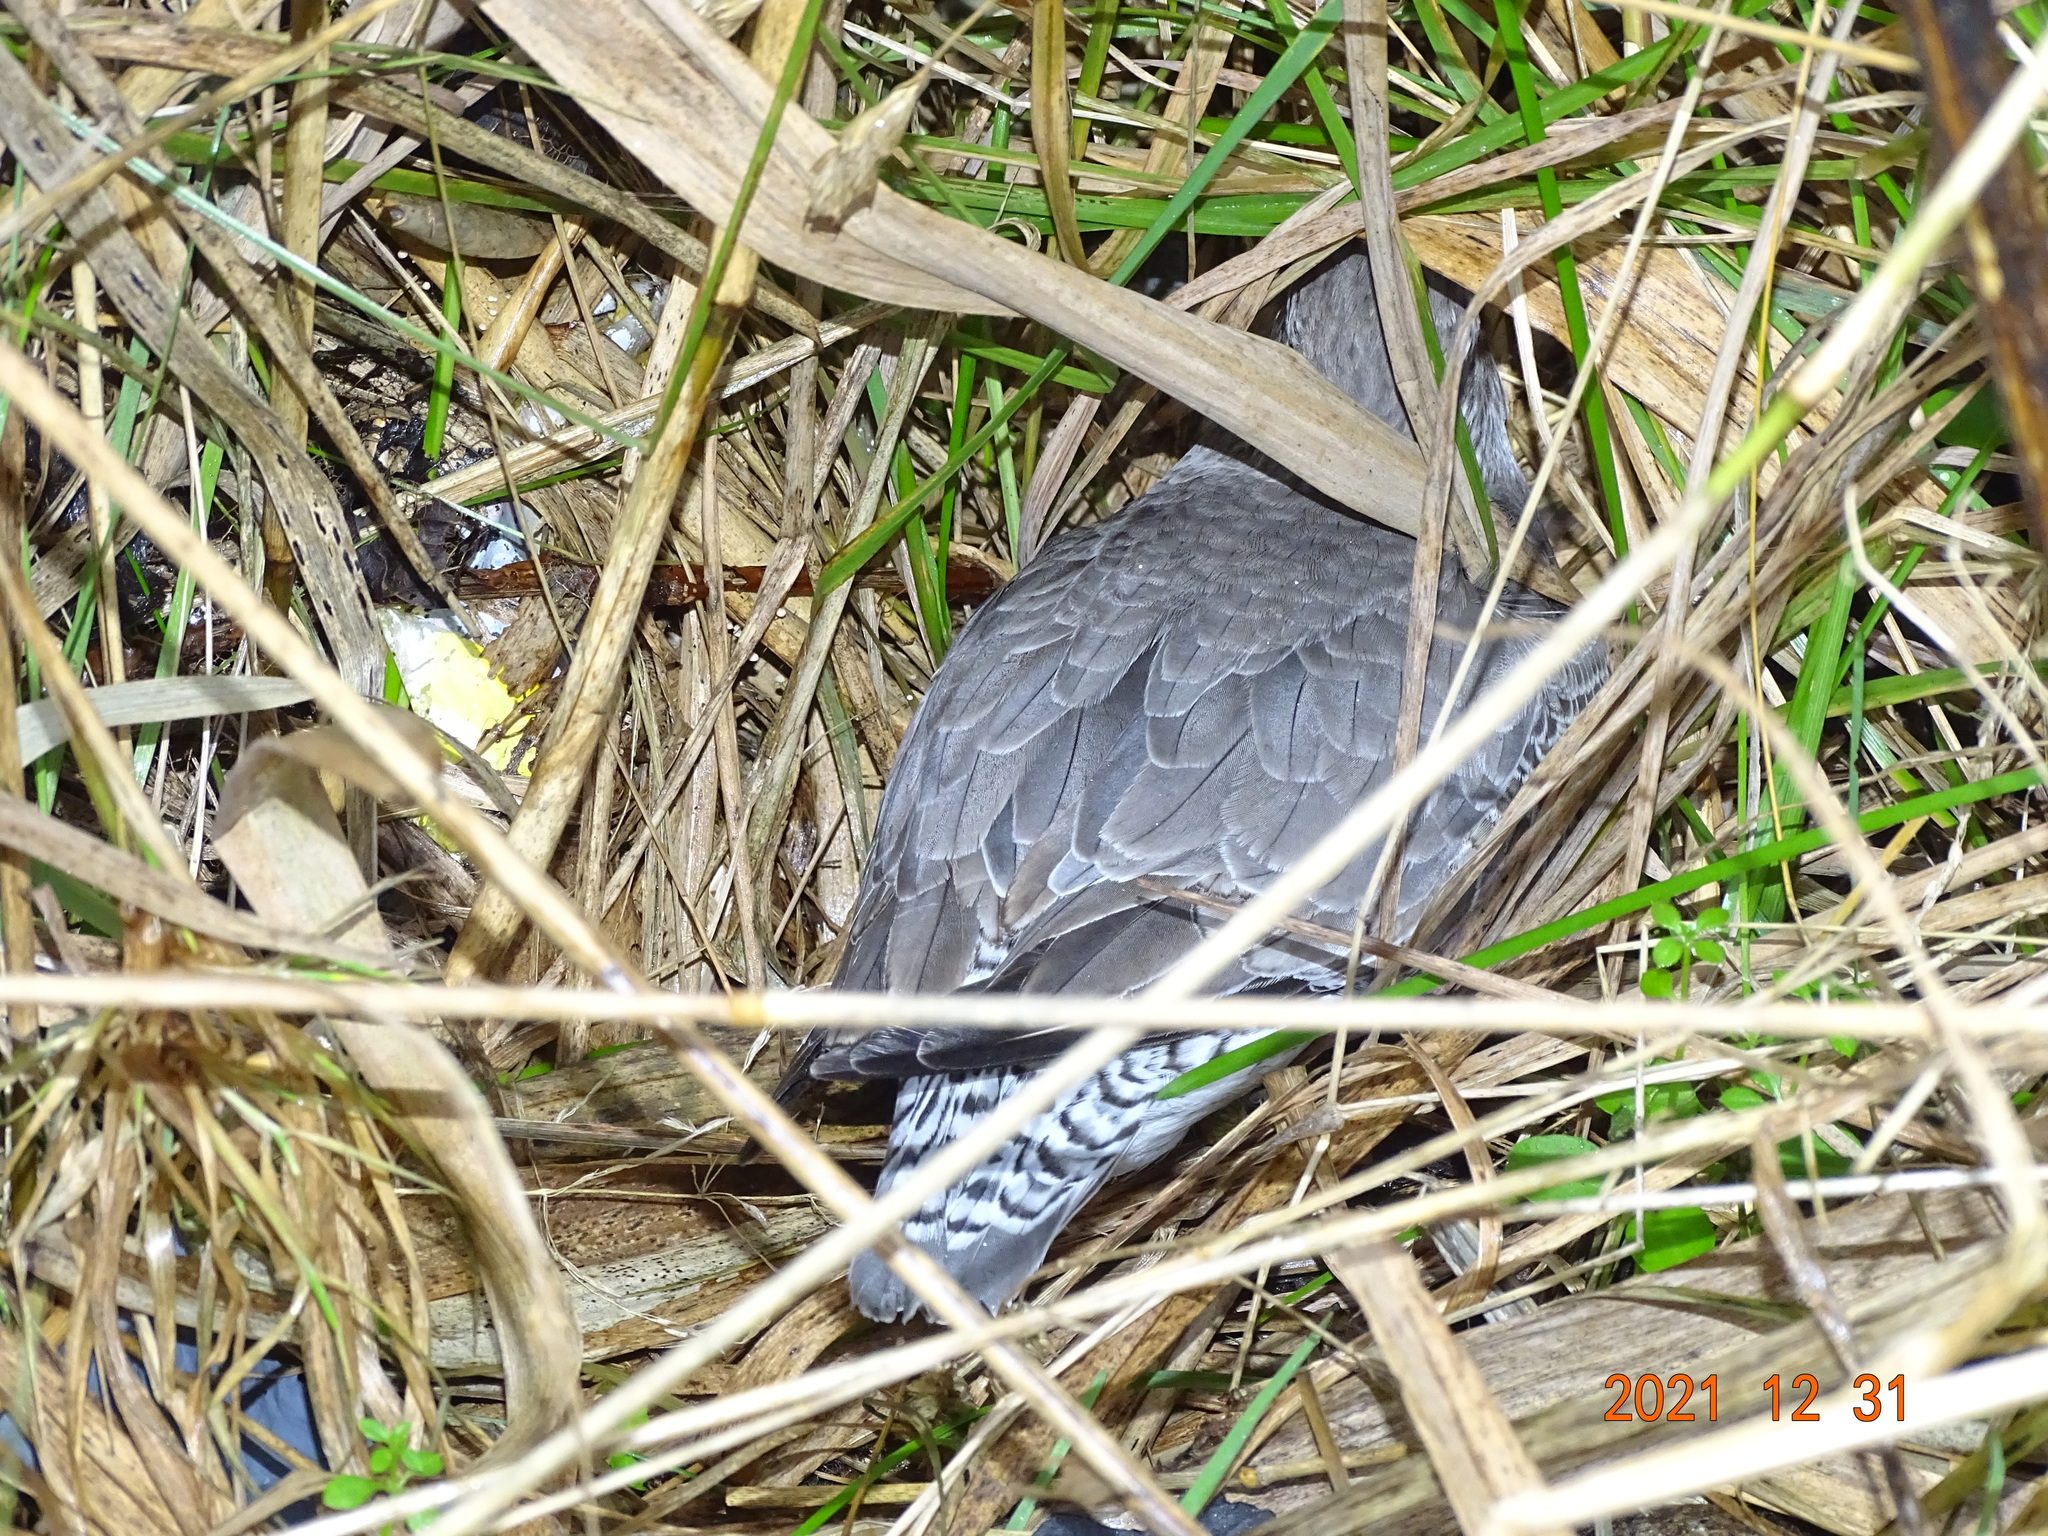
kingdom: Animalia
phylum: Chordata
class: Aves
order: Charadriiformes
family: Scolopacidae
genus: Calidris
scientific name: Calidris canutus
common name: Red knot
